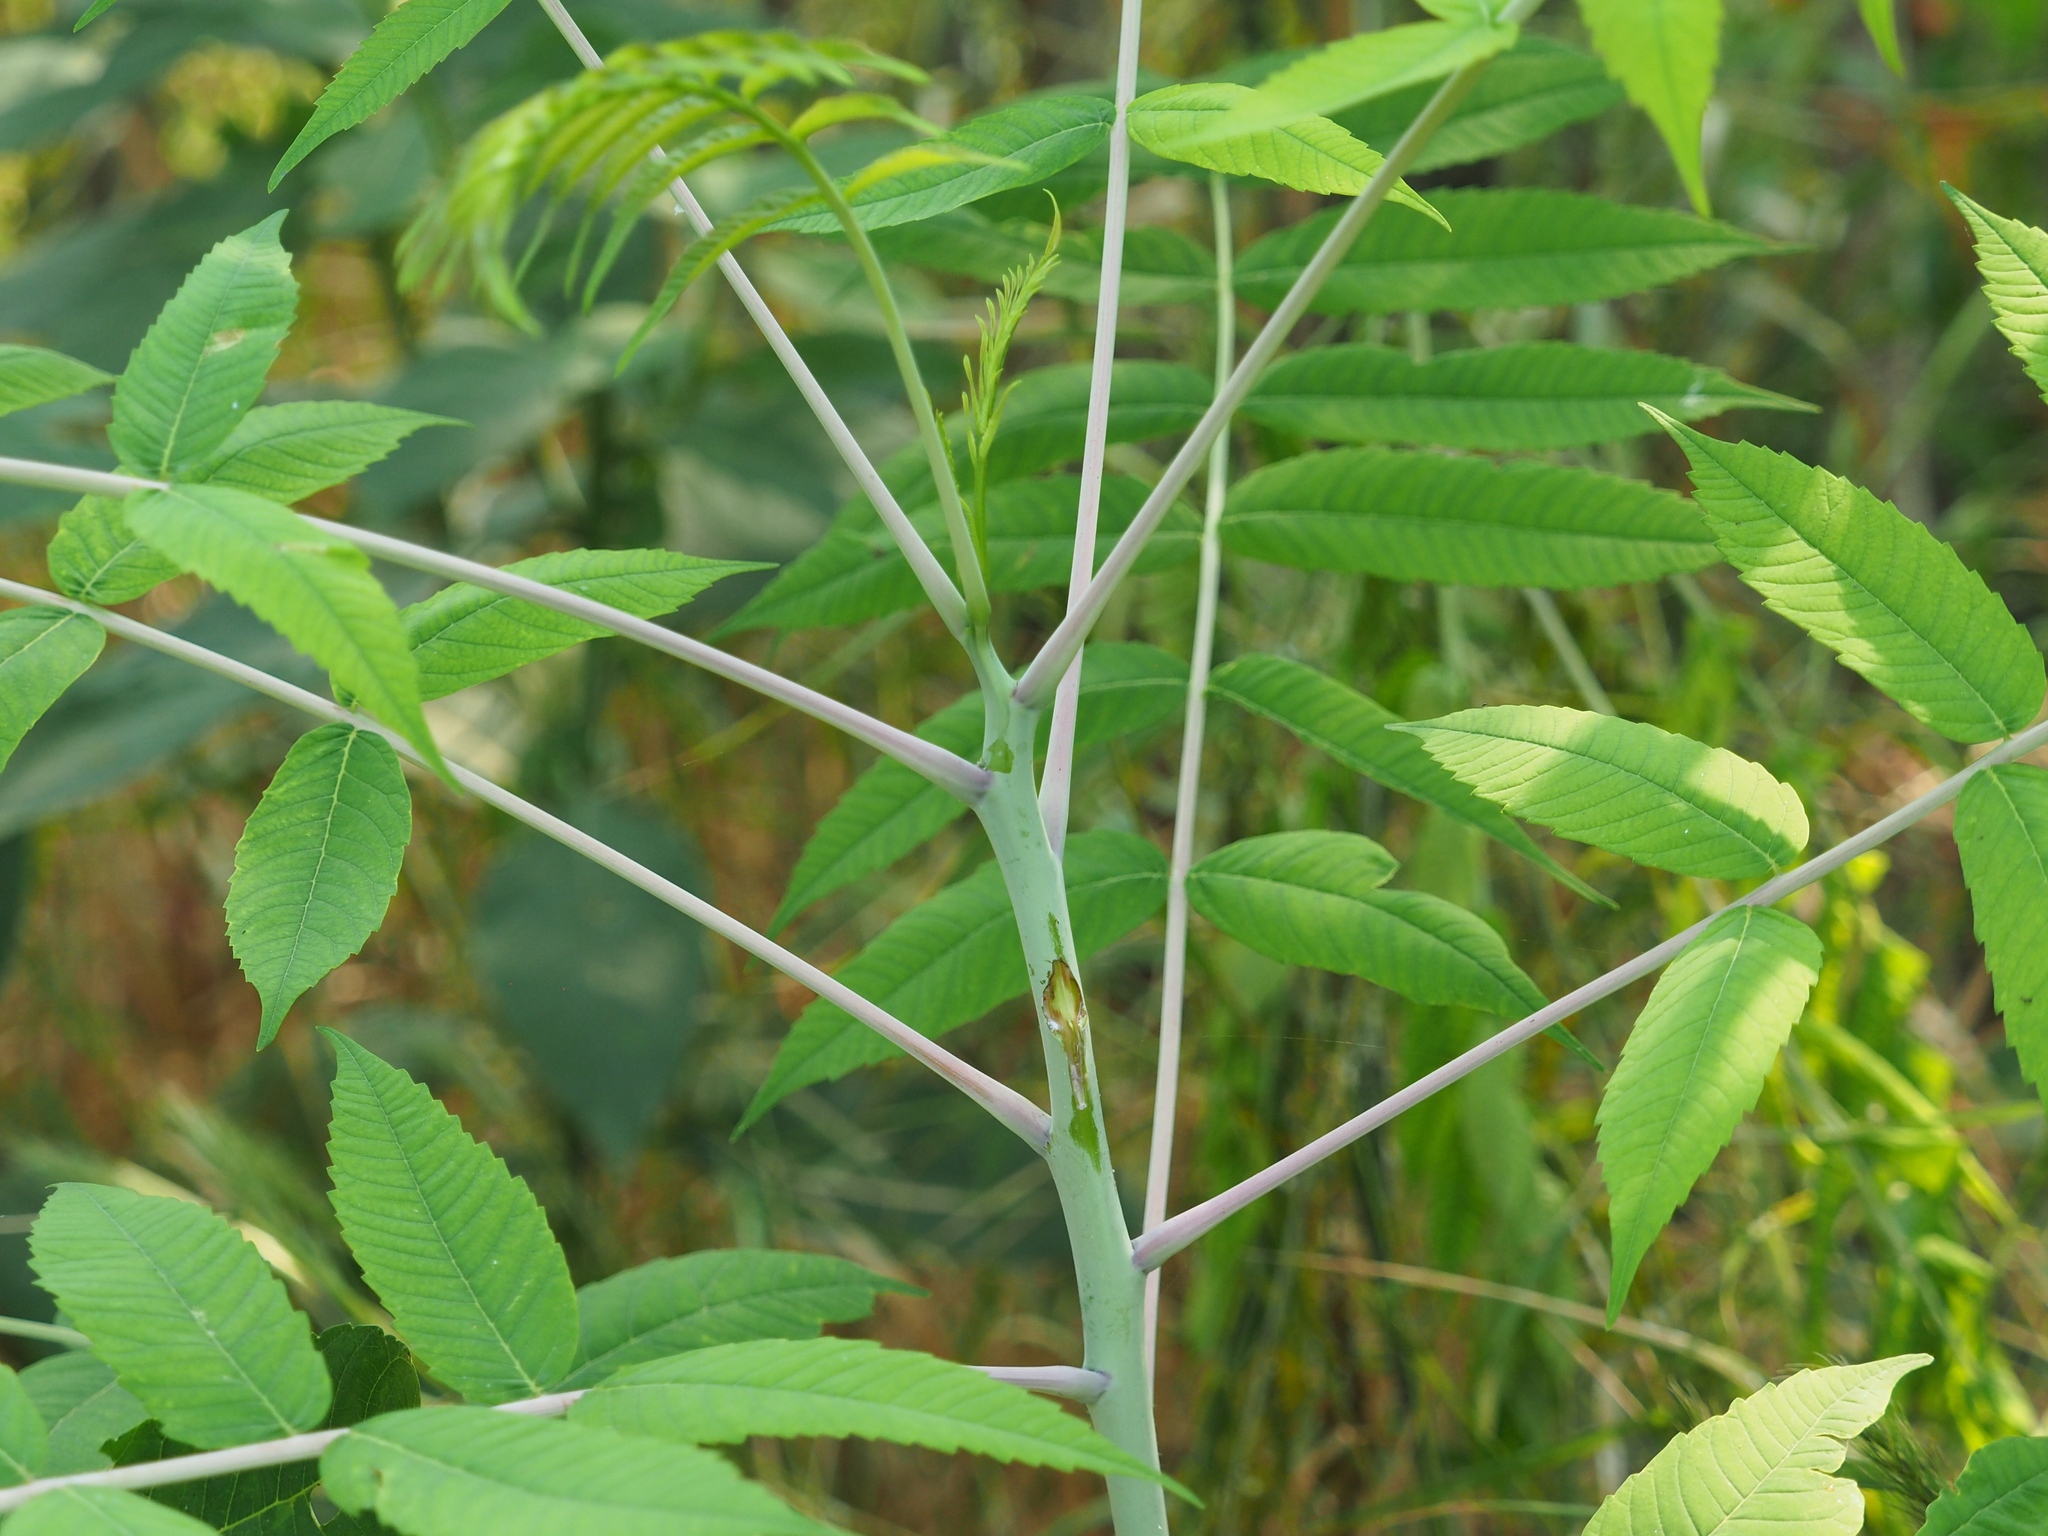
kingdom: Plantae
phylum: Tracheophyta
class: Magnoliopsida
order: Sapindales
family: Anacardiaceae
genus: Rhus
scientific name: Rhus glabra
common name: Scarlet sumac
